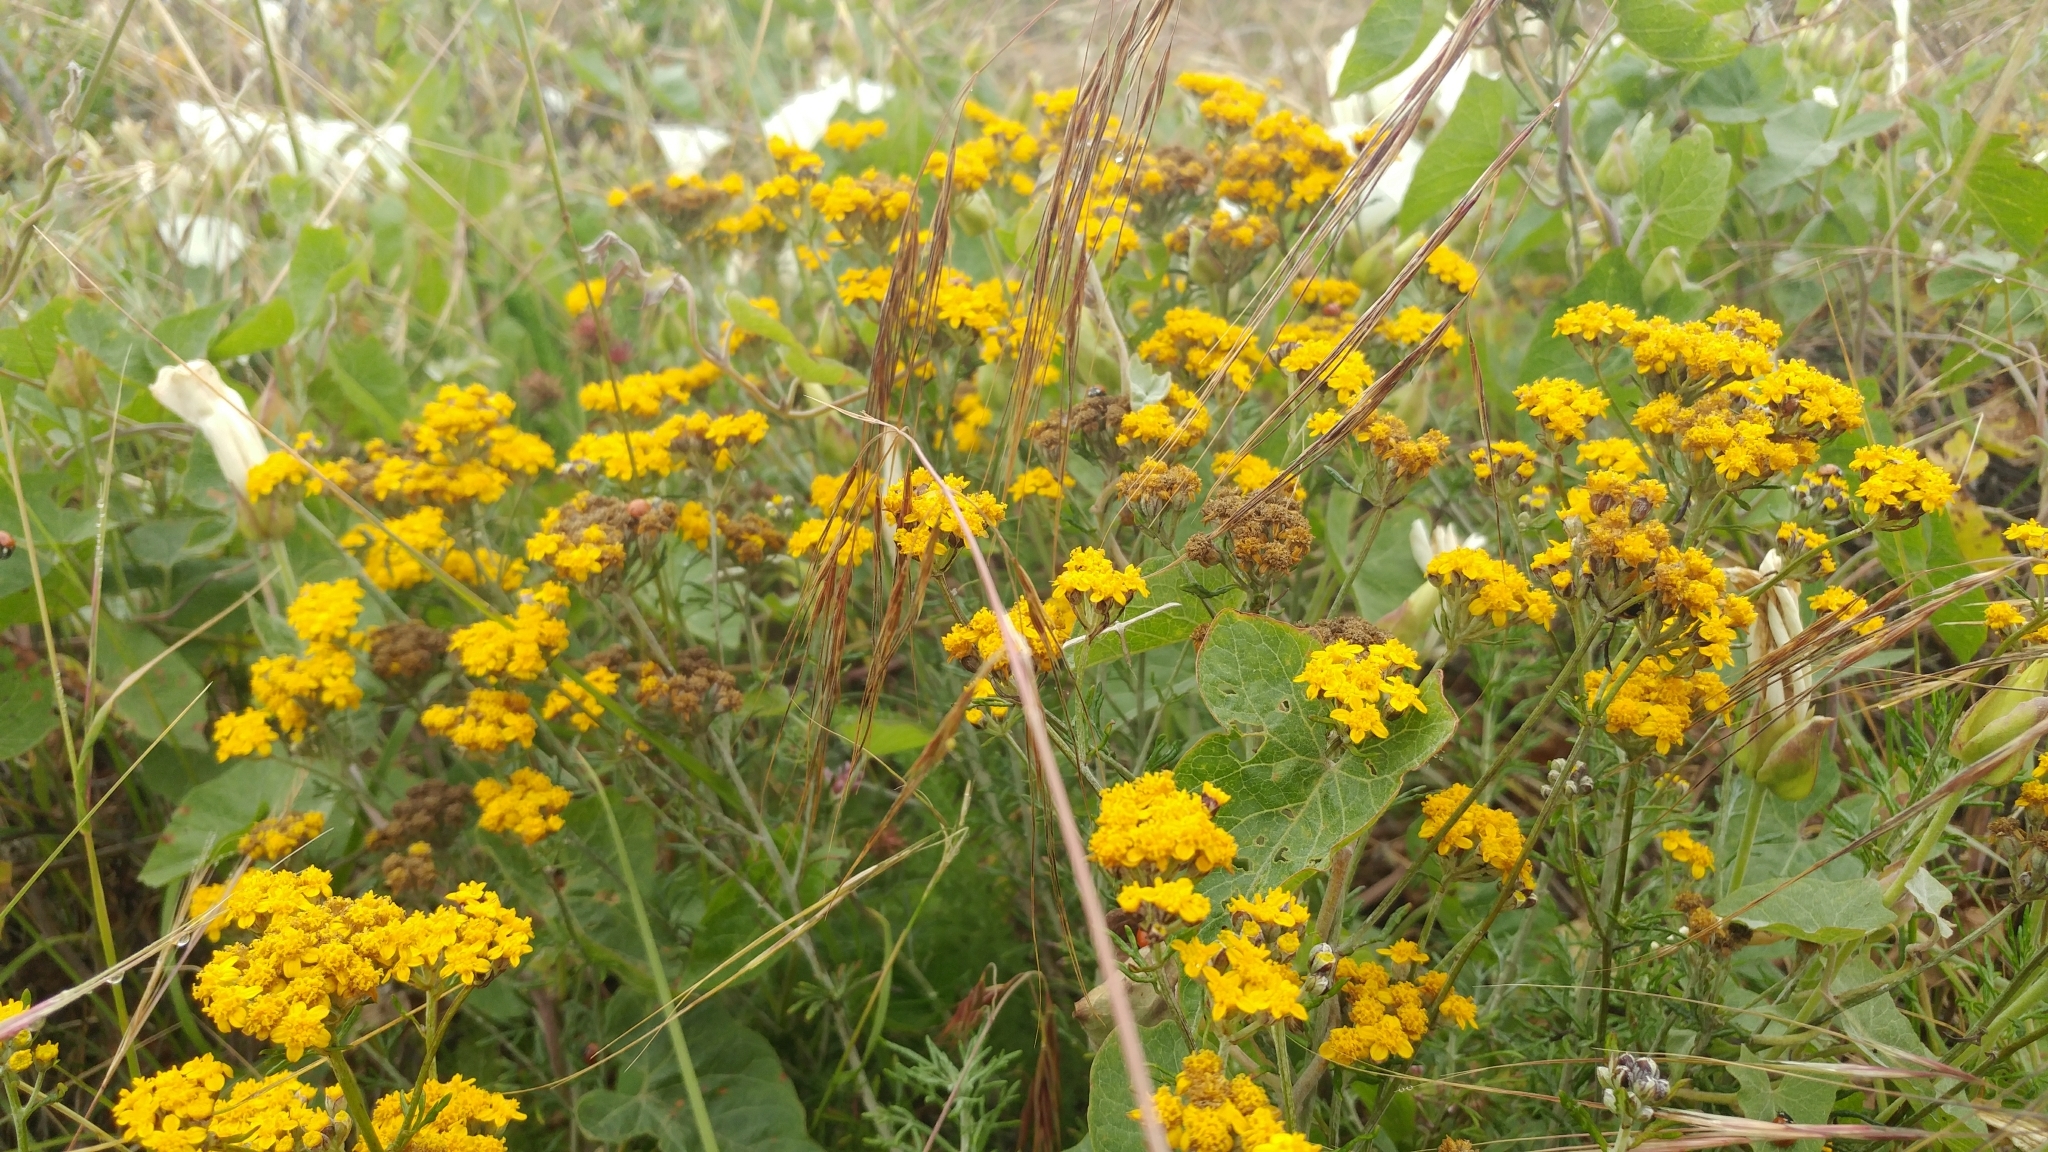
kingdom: Plantae
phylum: Tracheophyta
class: Magnoliopsida
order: Asterales
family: Asteraceae
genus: Eriophyllum
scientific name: Eriophyllum confertiflorum
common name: Golden-yarrow
